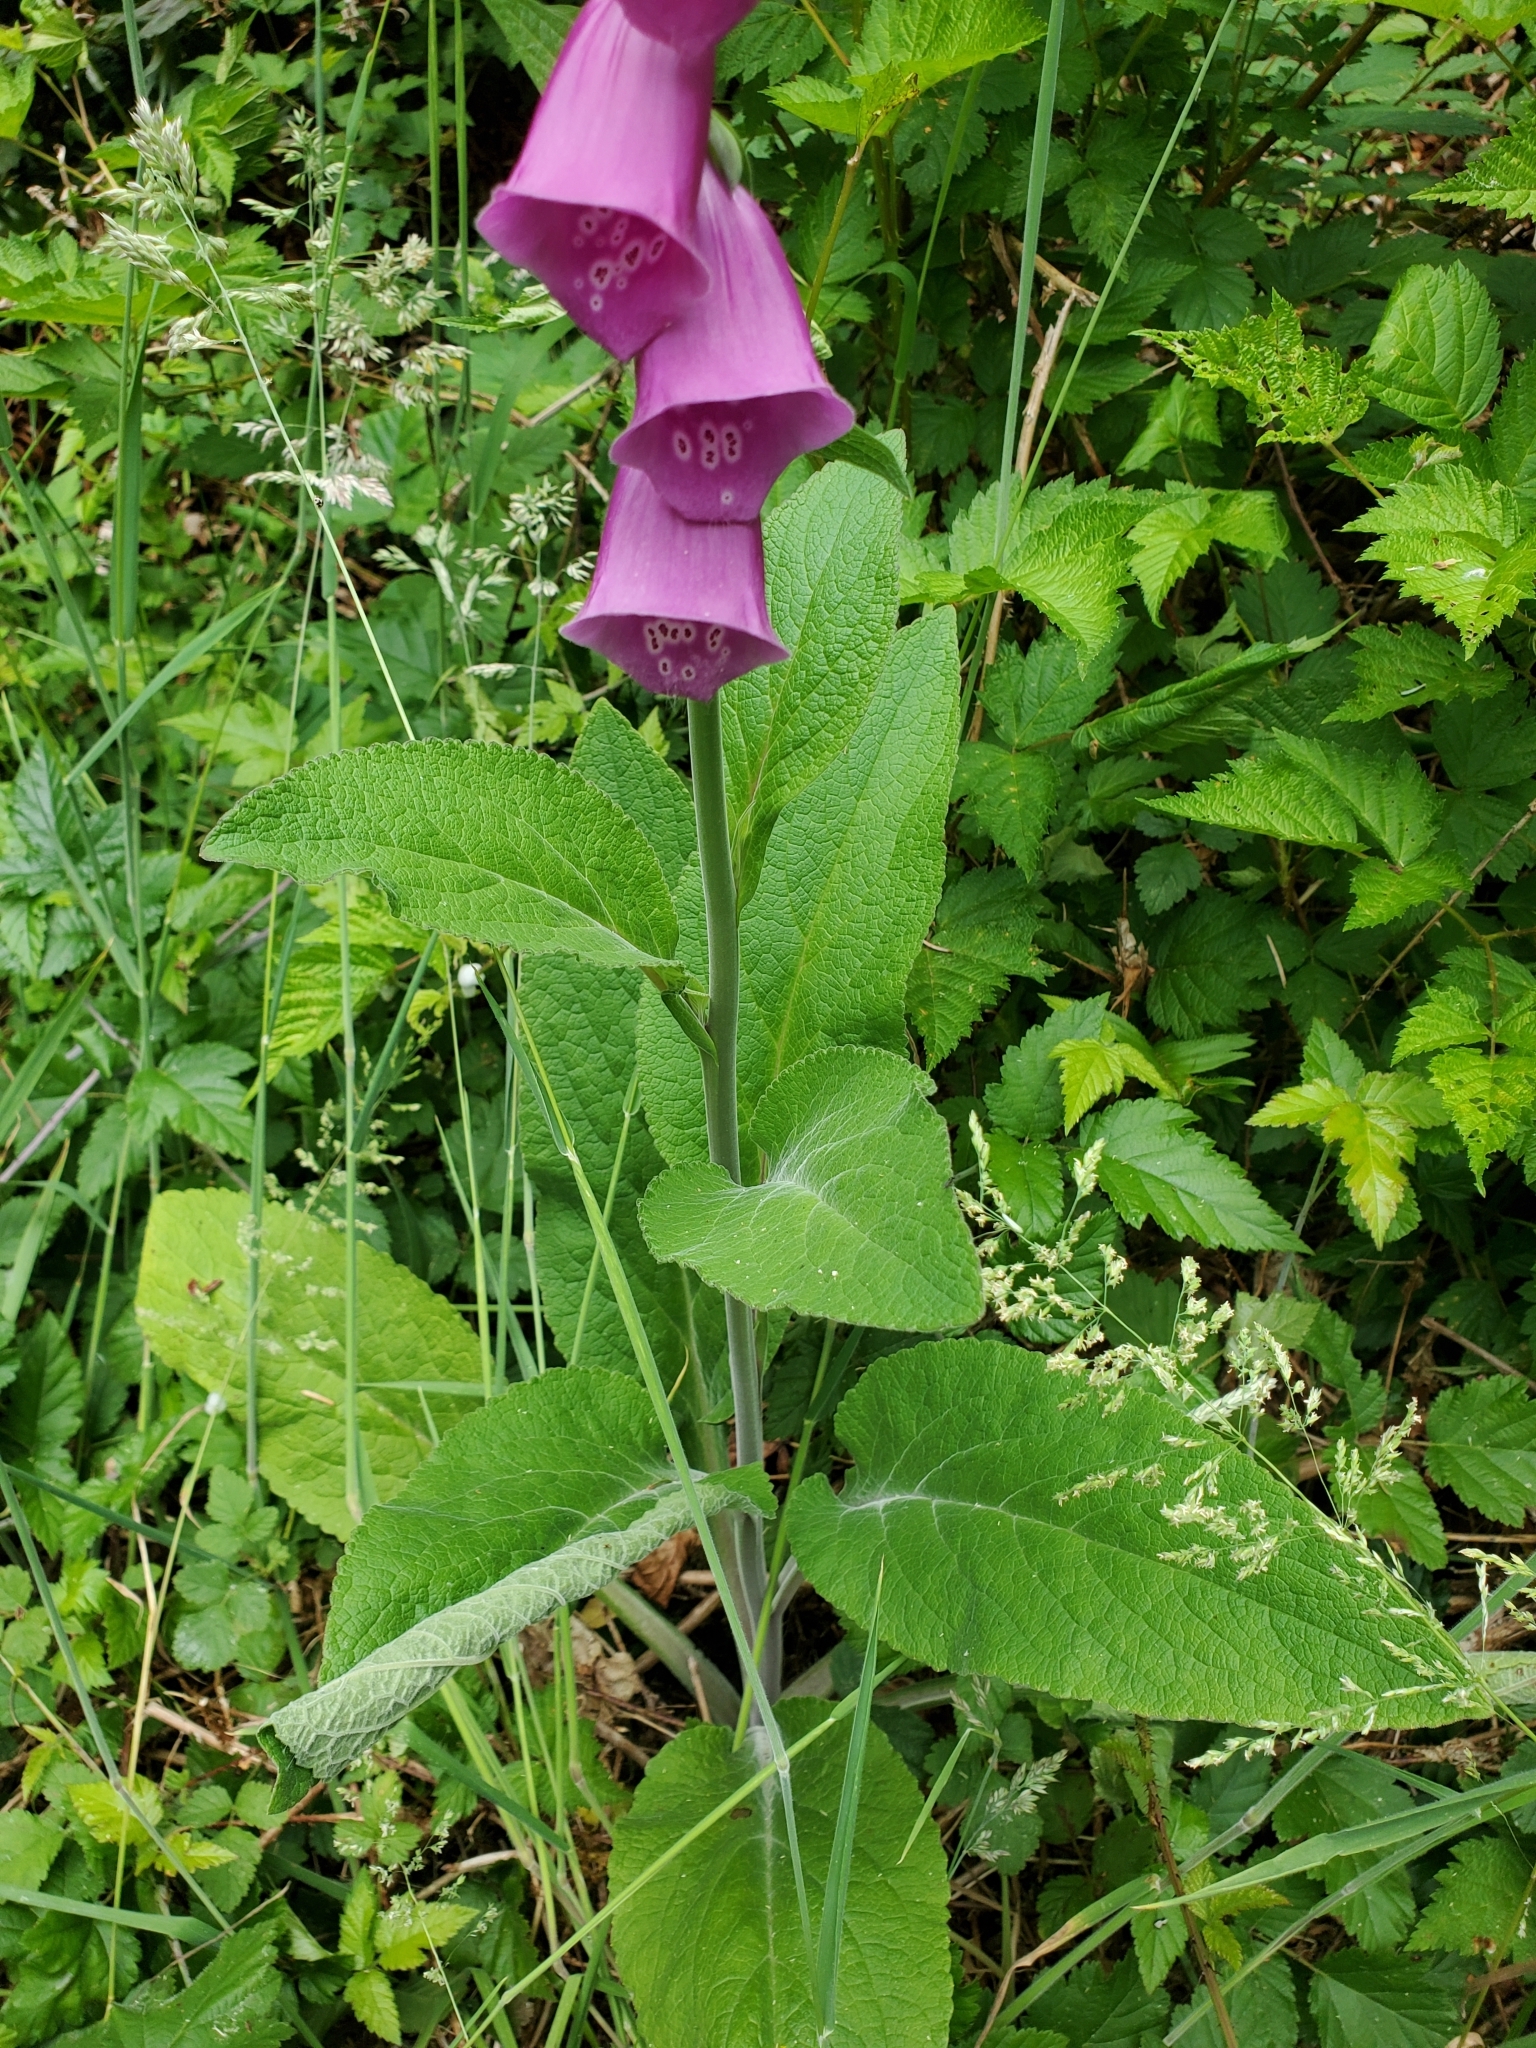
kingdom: Plantae
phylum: Tracheophyta
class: Magnoliopsida
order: Lamiales
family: Plantaginaceae
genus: Digitalis
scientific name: Digitalis purpurea
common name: Foxglove
